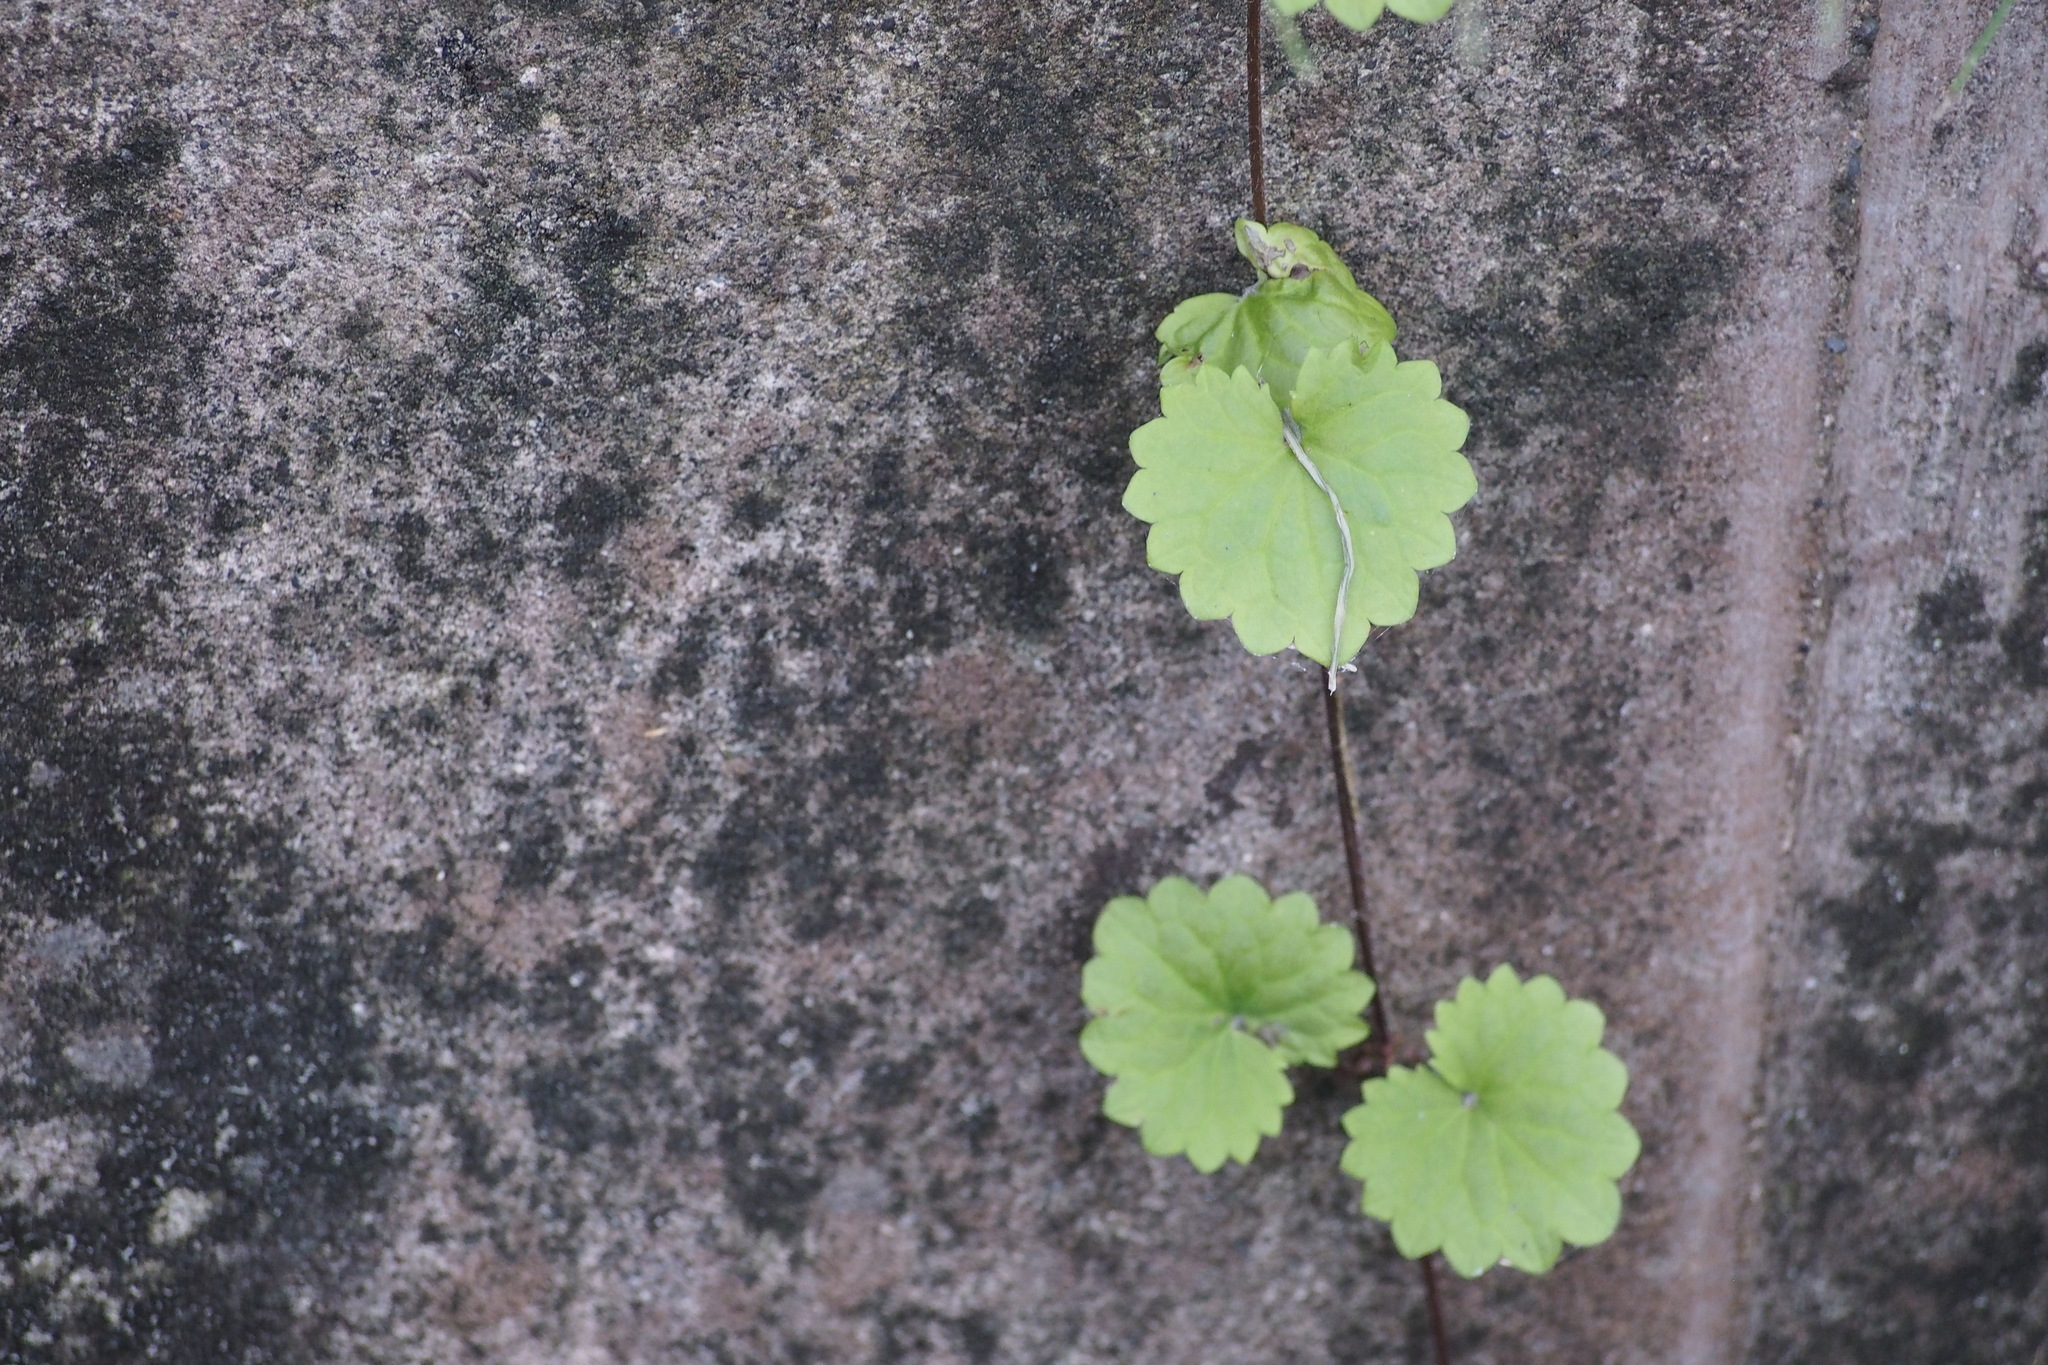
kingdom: Plantae
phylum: Tracheophyta
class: Magnoliopsida
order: Lamiales
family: Lamiaceae
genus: Glechoma
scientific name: Glechoma grandis
